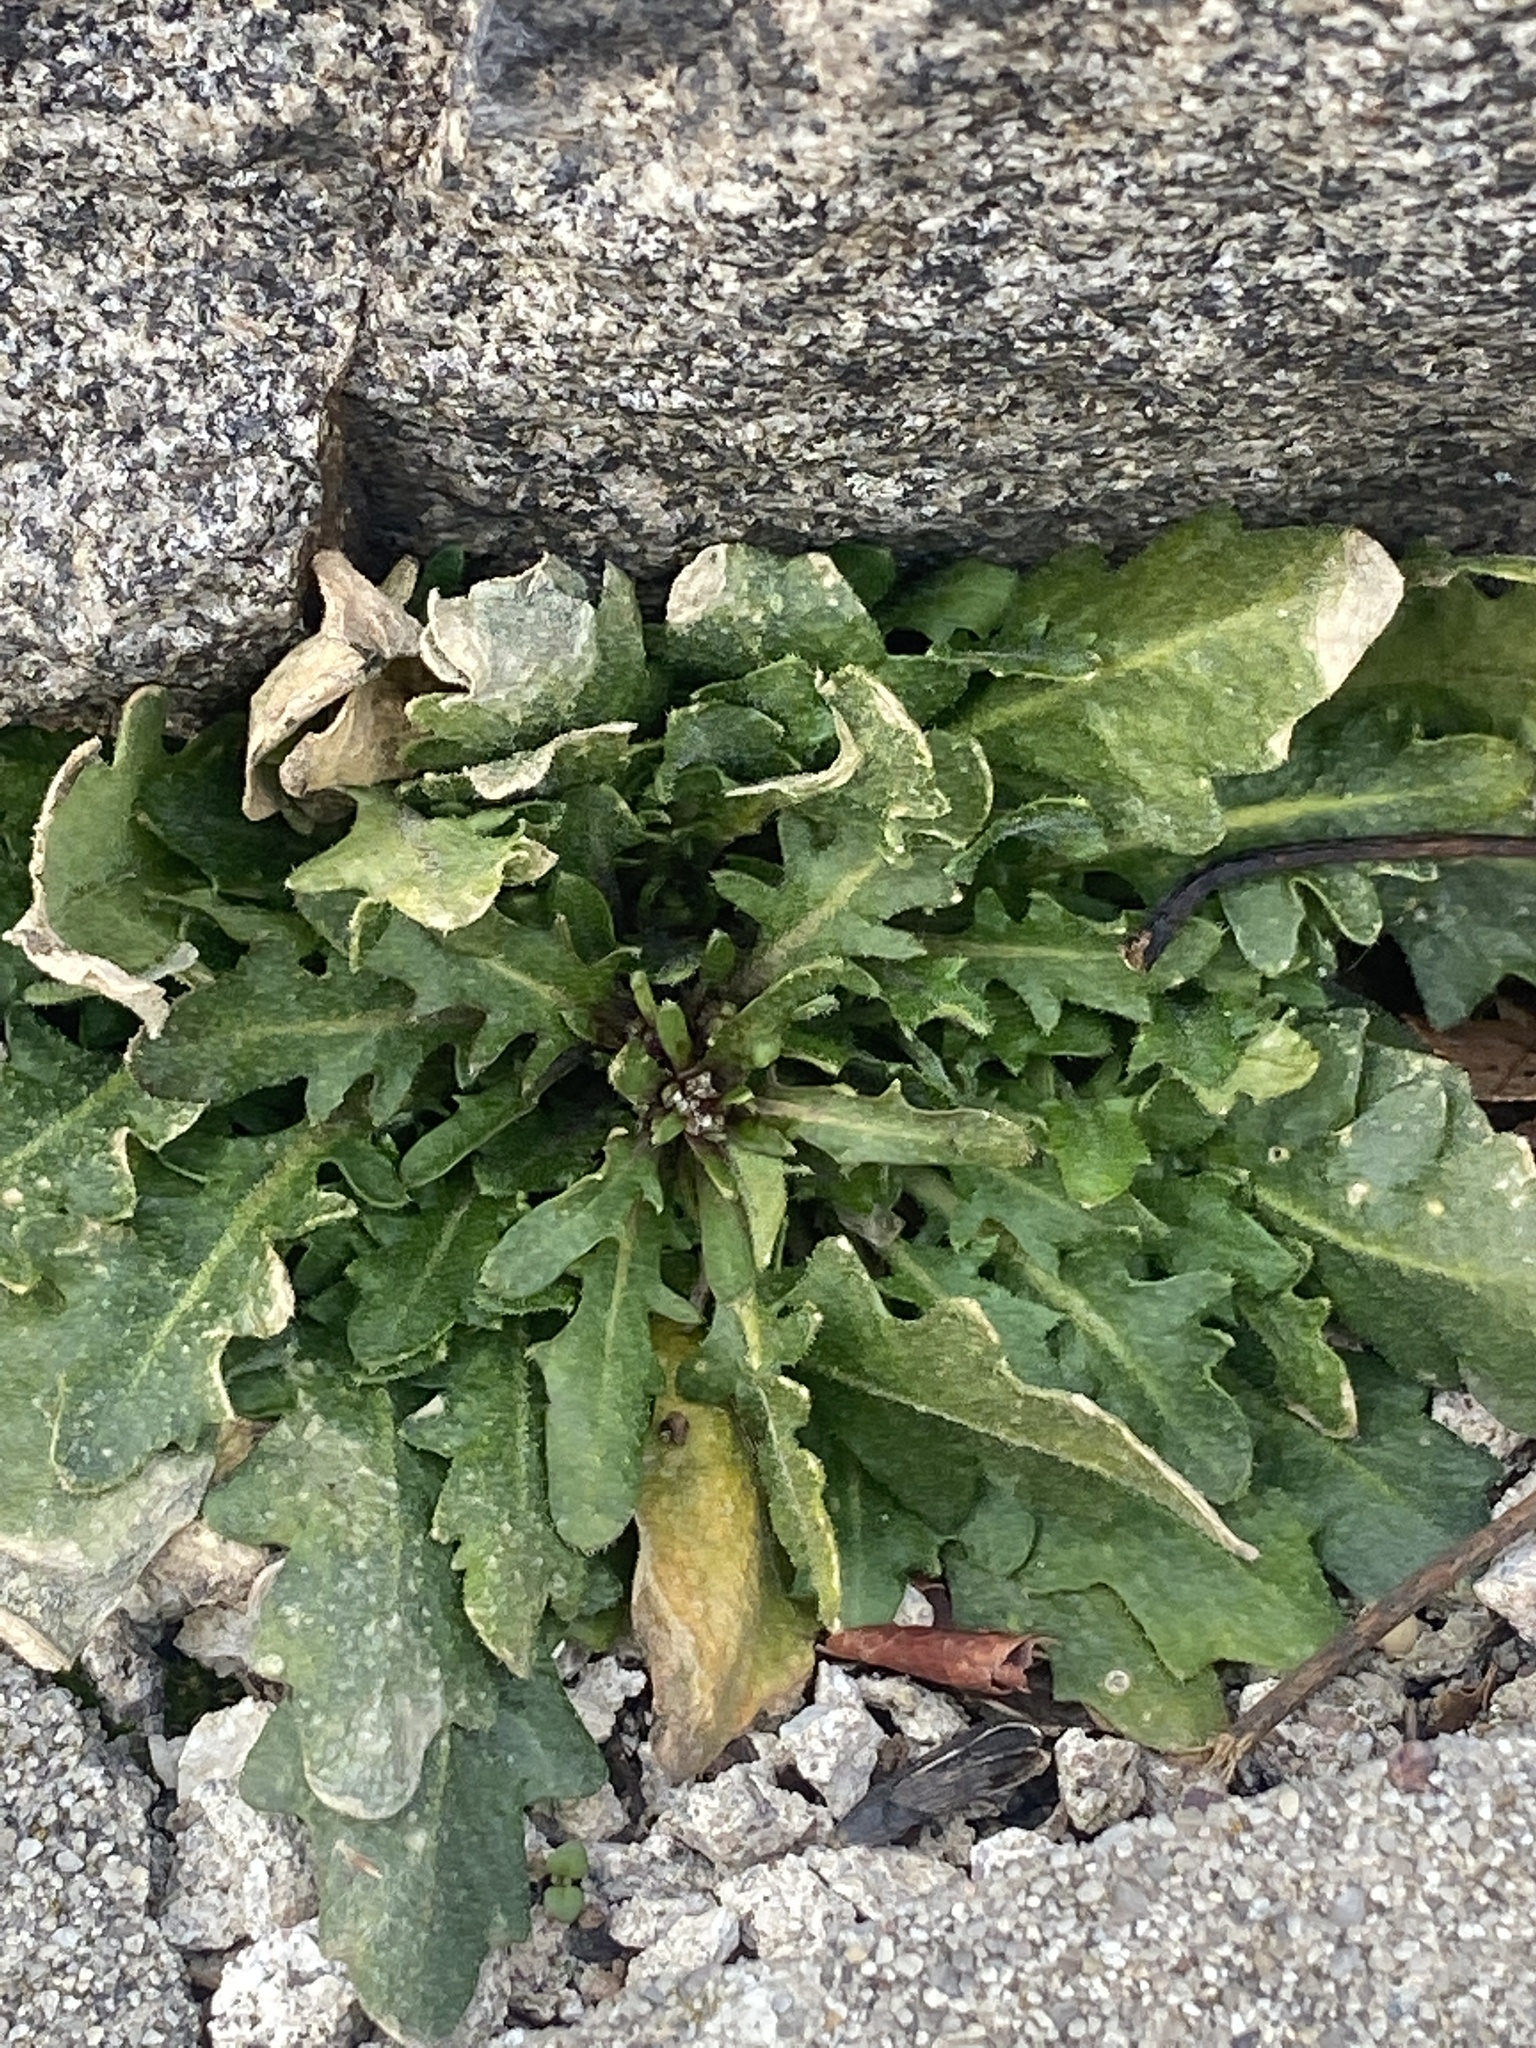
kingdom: Plantae
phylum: Tracheophyta
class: Magnoliopsida
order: Brassicales
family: Brassicaceae
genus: Arabidopsis
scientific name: Arabidopsis lyrata
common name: Lyrate rockcress
